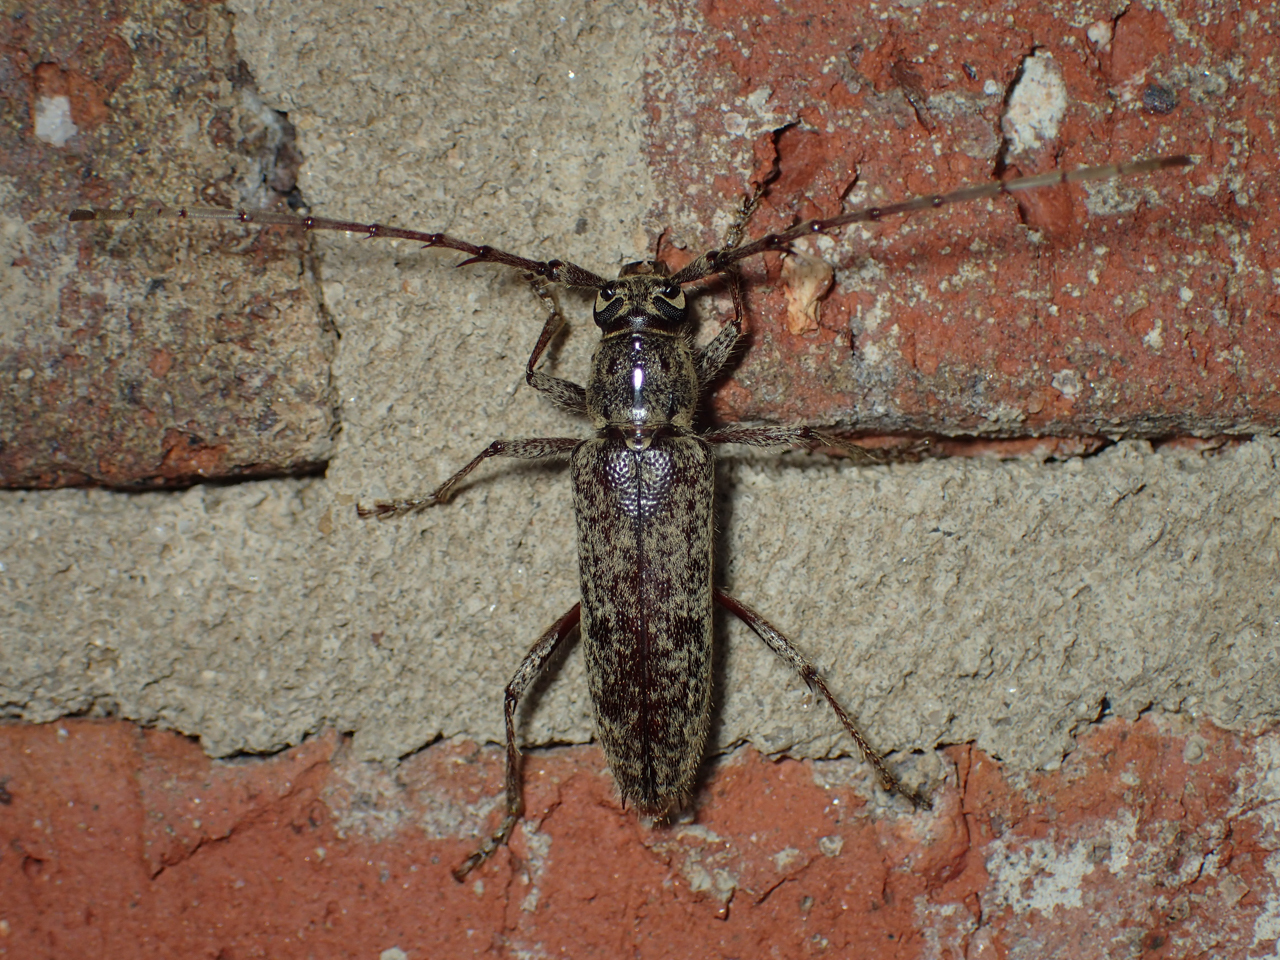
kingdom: Animalia
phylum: Arthropoda
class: Insecta
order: Coleoptera
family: Cerambycidae
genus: Elaphidion
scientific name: Elaphidion mucronatum
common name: Spined oak borer
